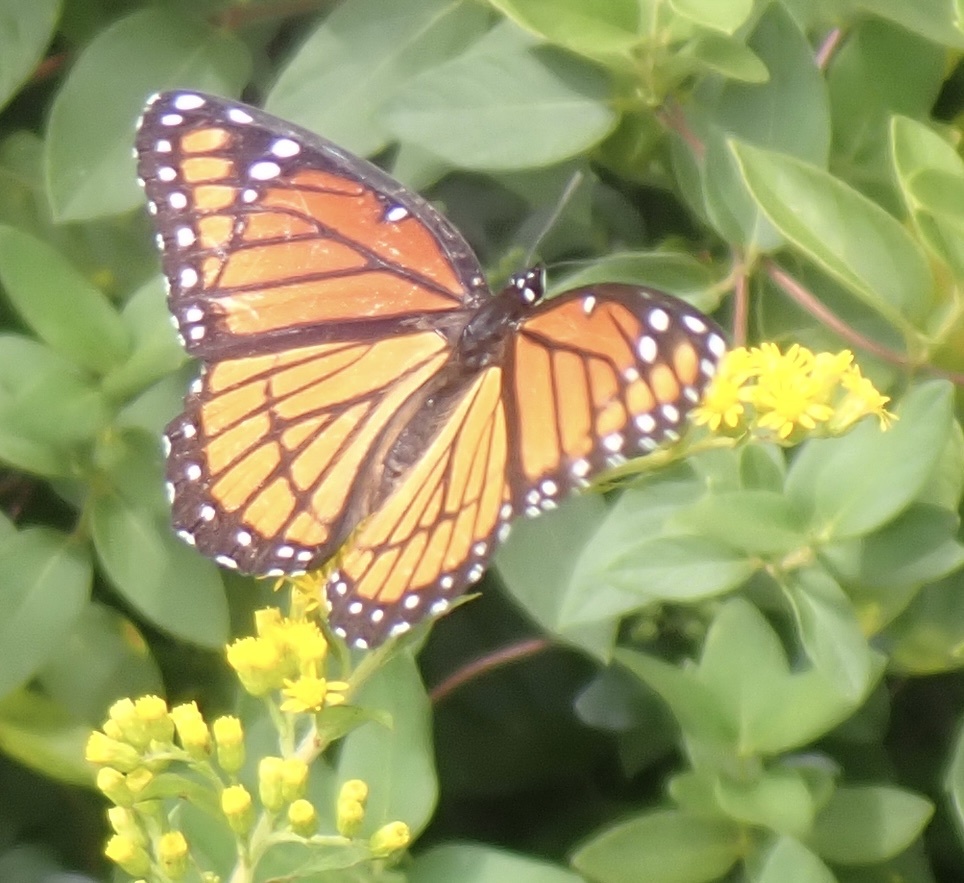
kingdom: Animalia
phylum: Arthropoda
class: Insecta
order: Lepidoptera
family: Nymphalidae
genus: Limenitis
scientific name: Limenitis archippus
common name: Viceroy
